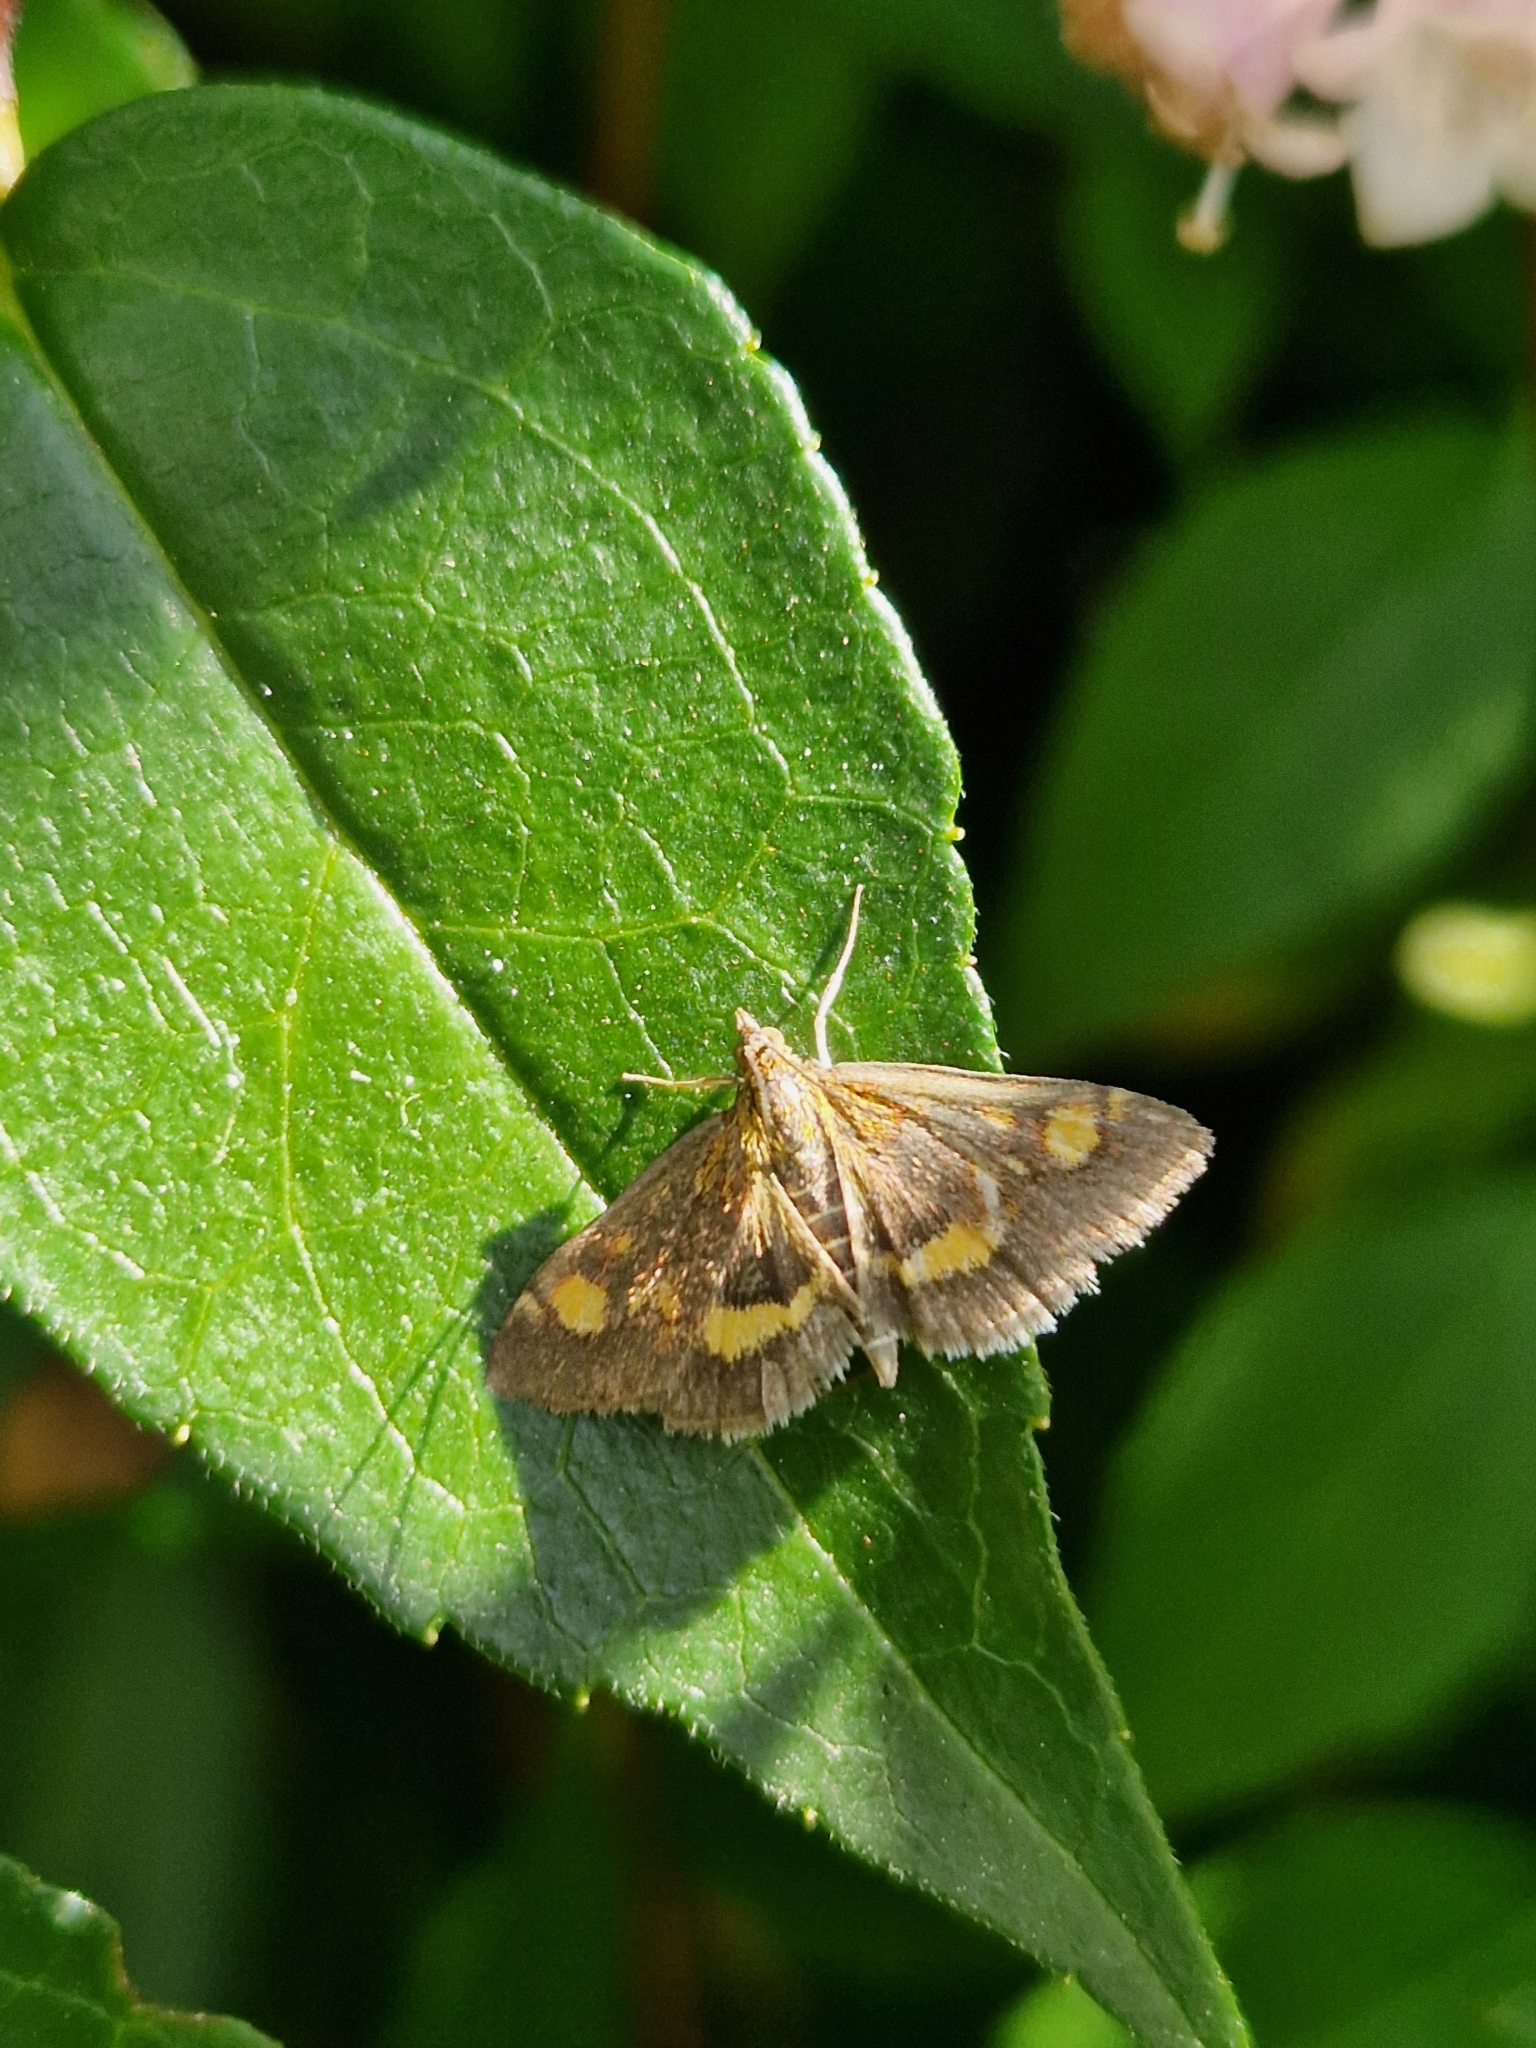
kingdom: Animalia
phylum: Arthropoda
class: Insecta
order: Lepidoptera
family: Crambidae
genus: Pyrausta
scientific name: Pyrausta aurata
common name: Small purple & gold
